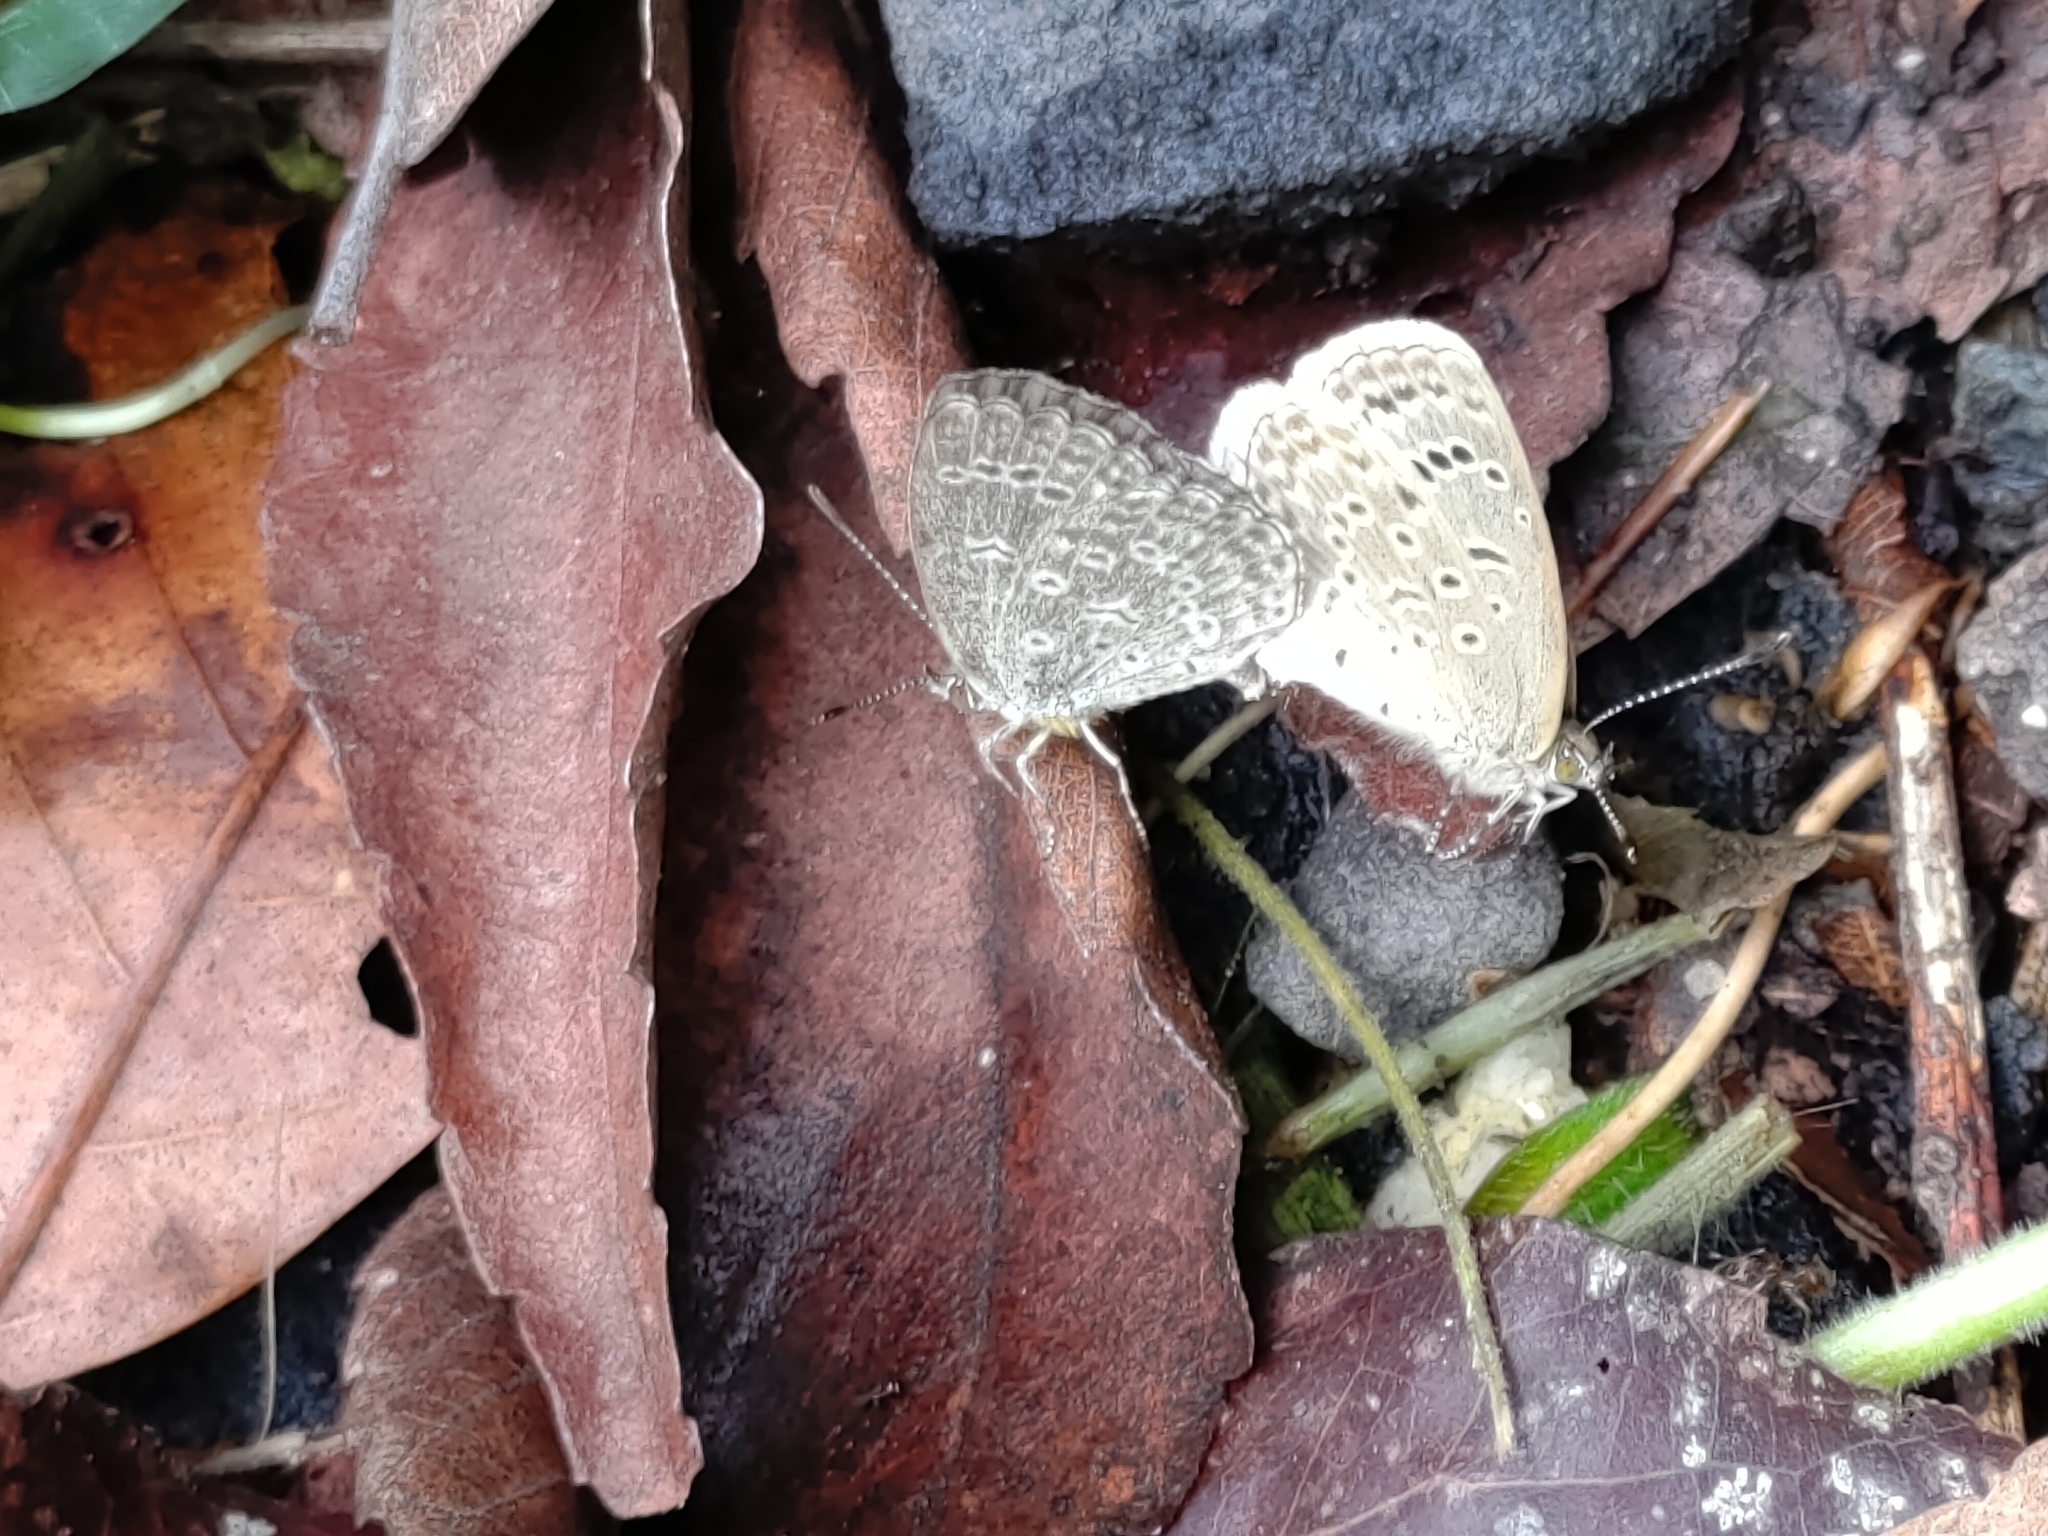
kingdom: Animalia
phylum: Arthropoda
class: Insecta
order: Lepidoptera
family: Lycaenidae
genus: Pseudozizeeria
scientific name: Pseudozizeeria maha
